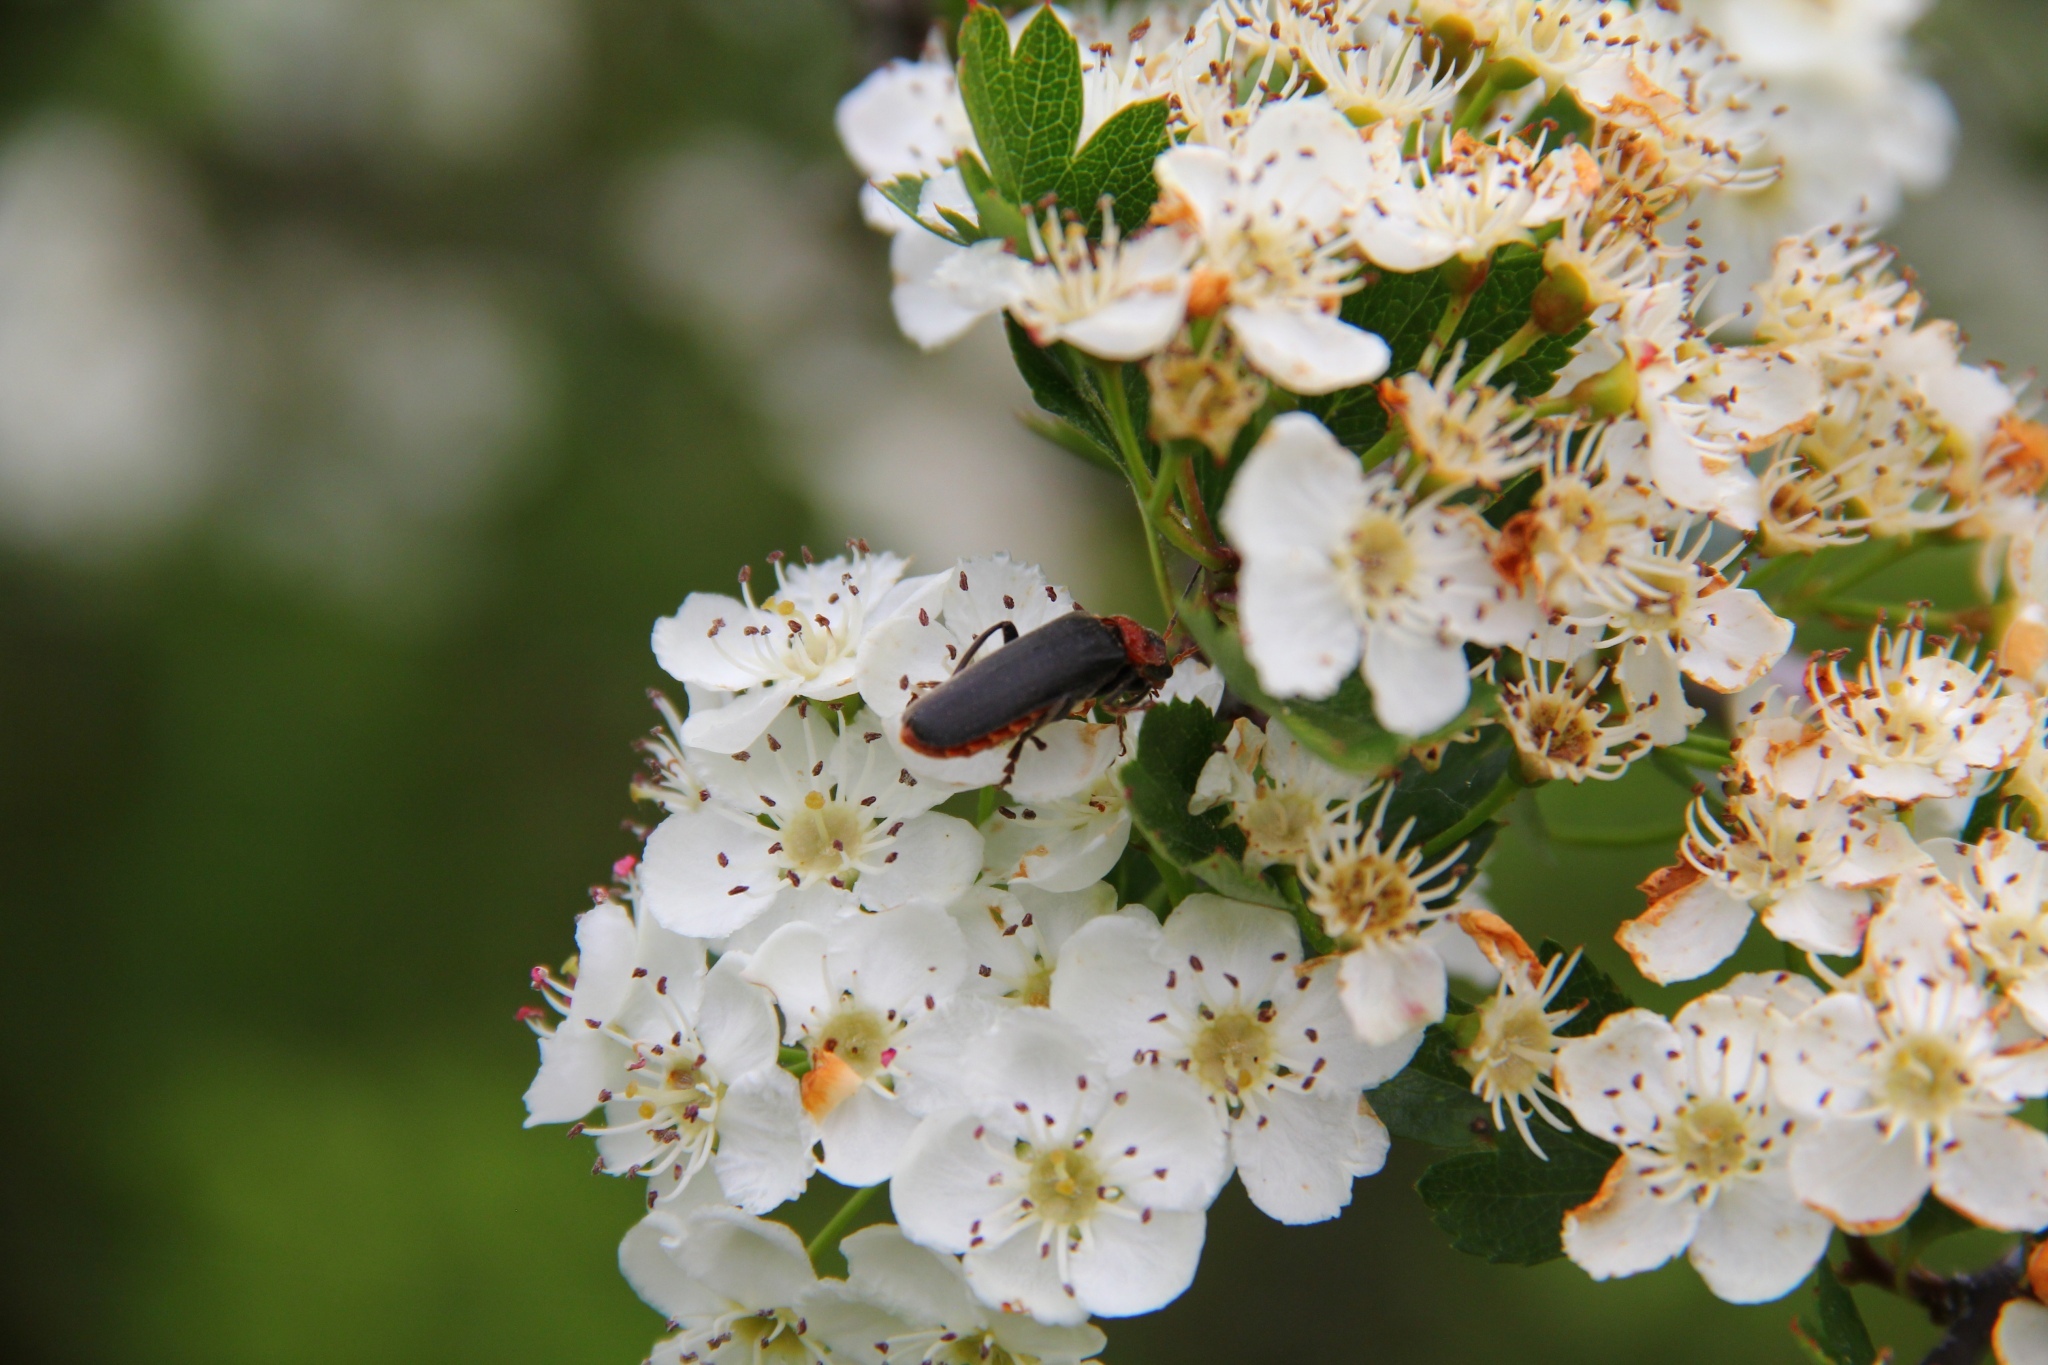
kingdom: Animalia
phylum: Arthropoda
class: Insecta
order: Coleoptera
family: Cantharidae
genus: Cantharis
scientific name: Cantharis fusca
